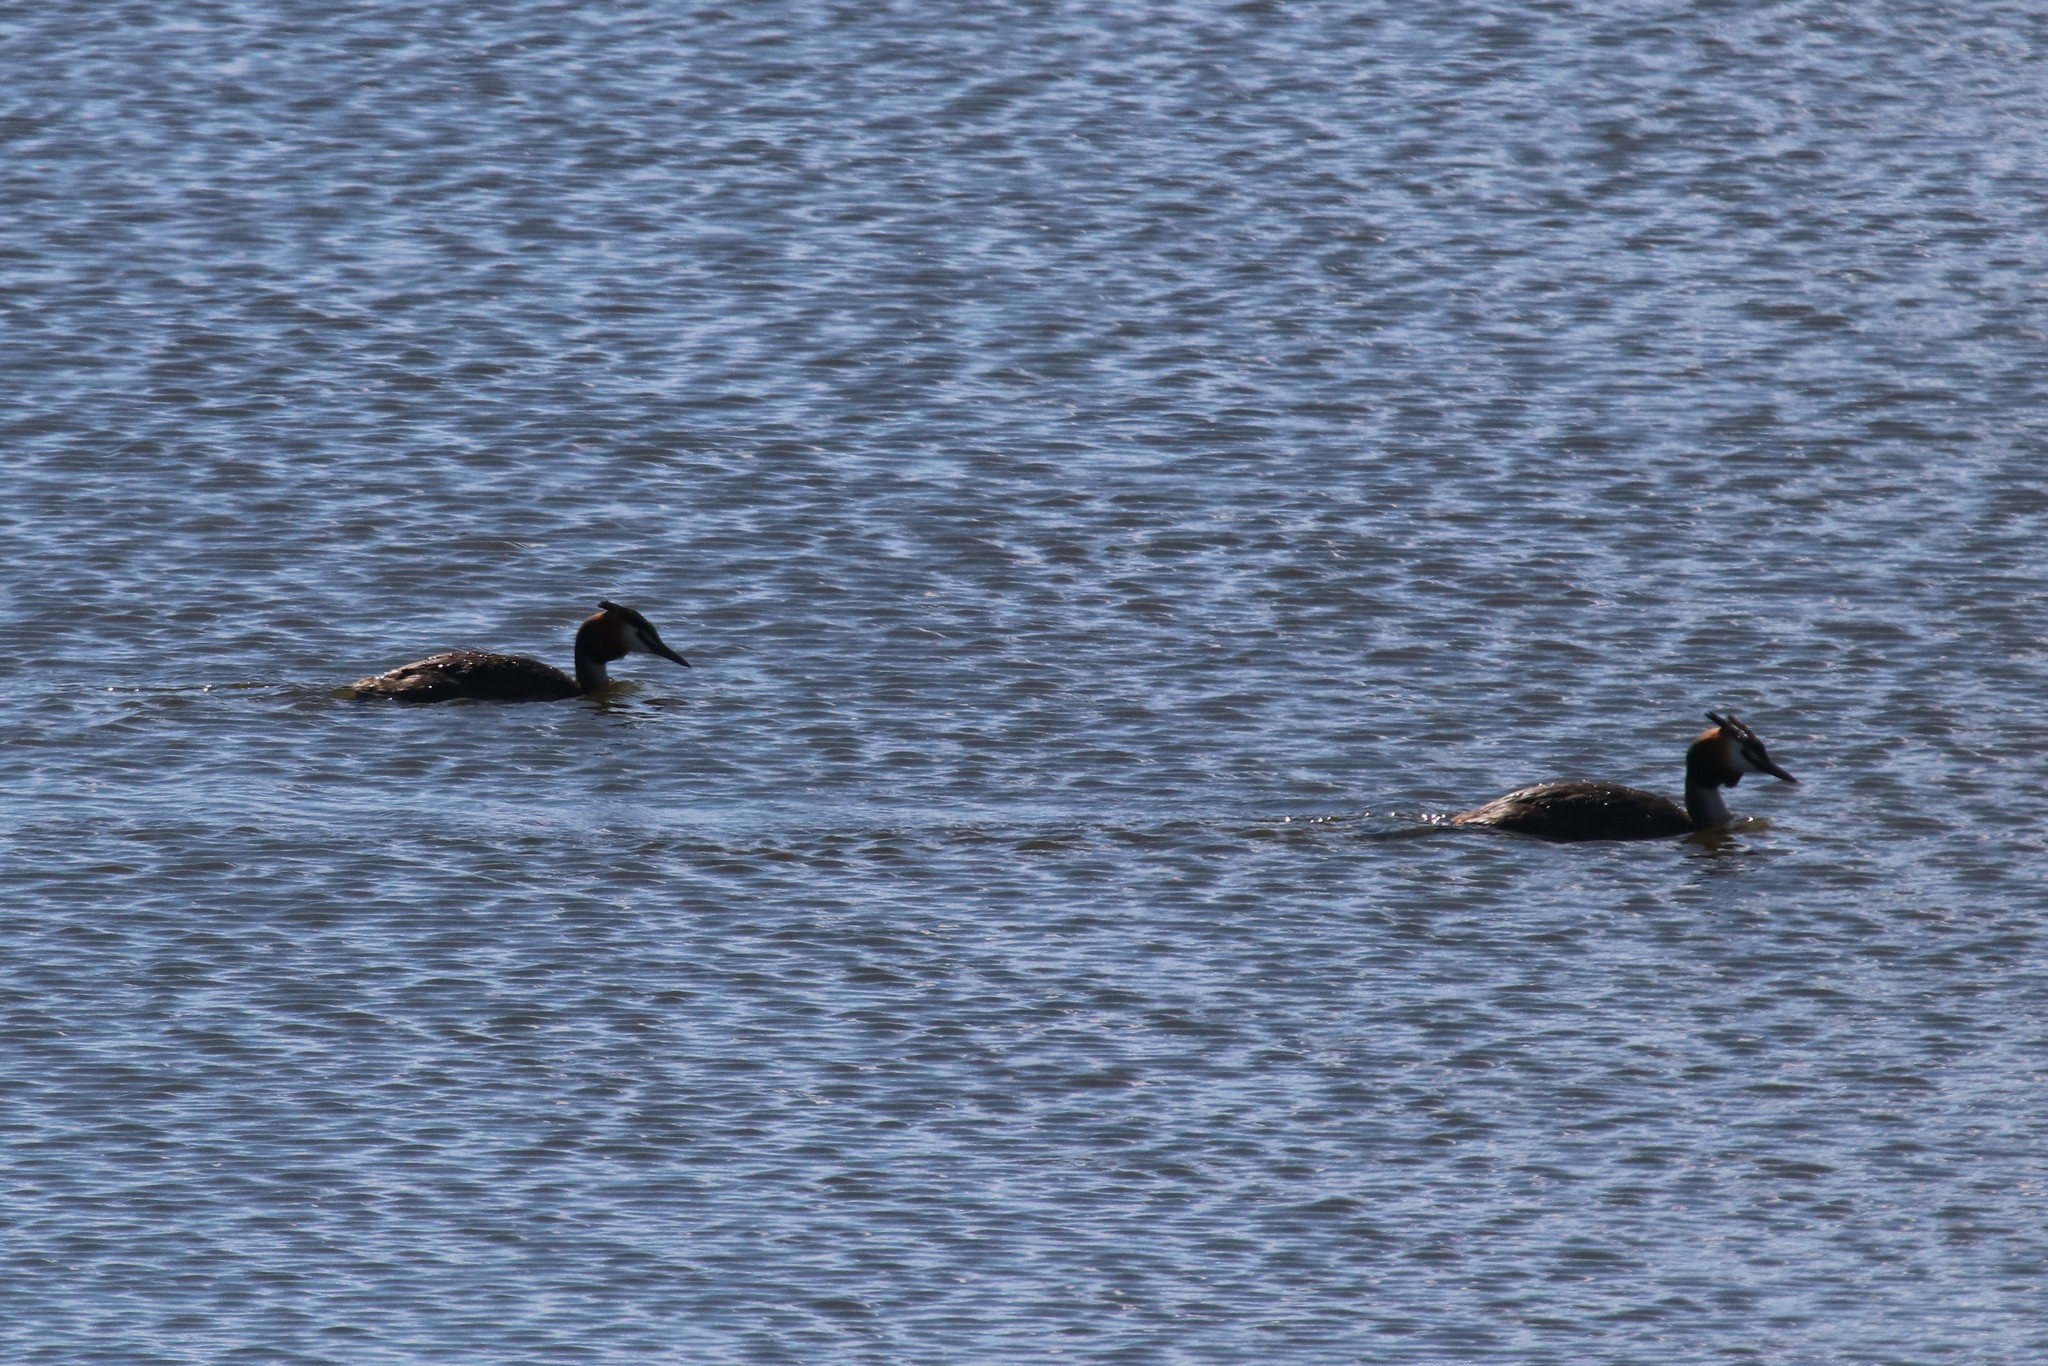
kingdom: Animalia
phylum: Chordata
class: Aves
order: Podicipediformes
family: Podicipedidae
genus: Podiceps
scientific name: Podiceps cristatus
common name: Great crested grebe
